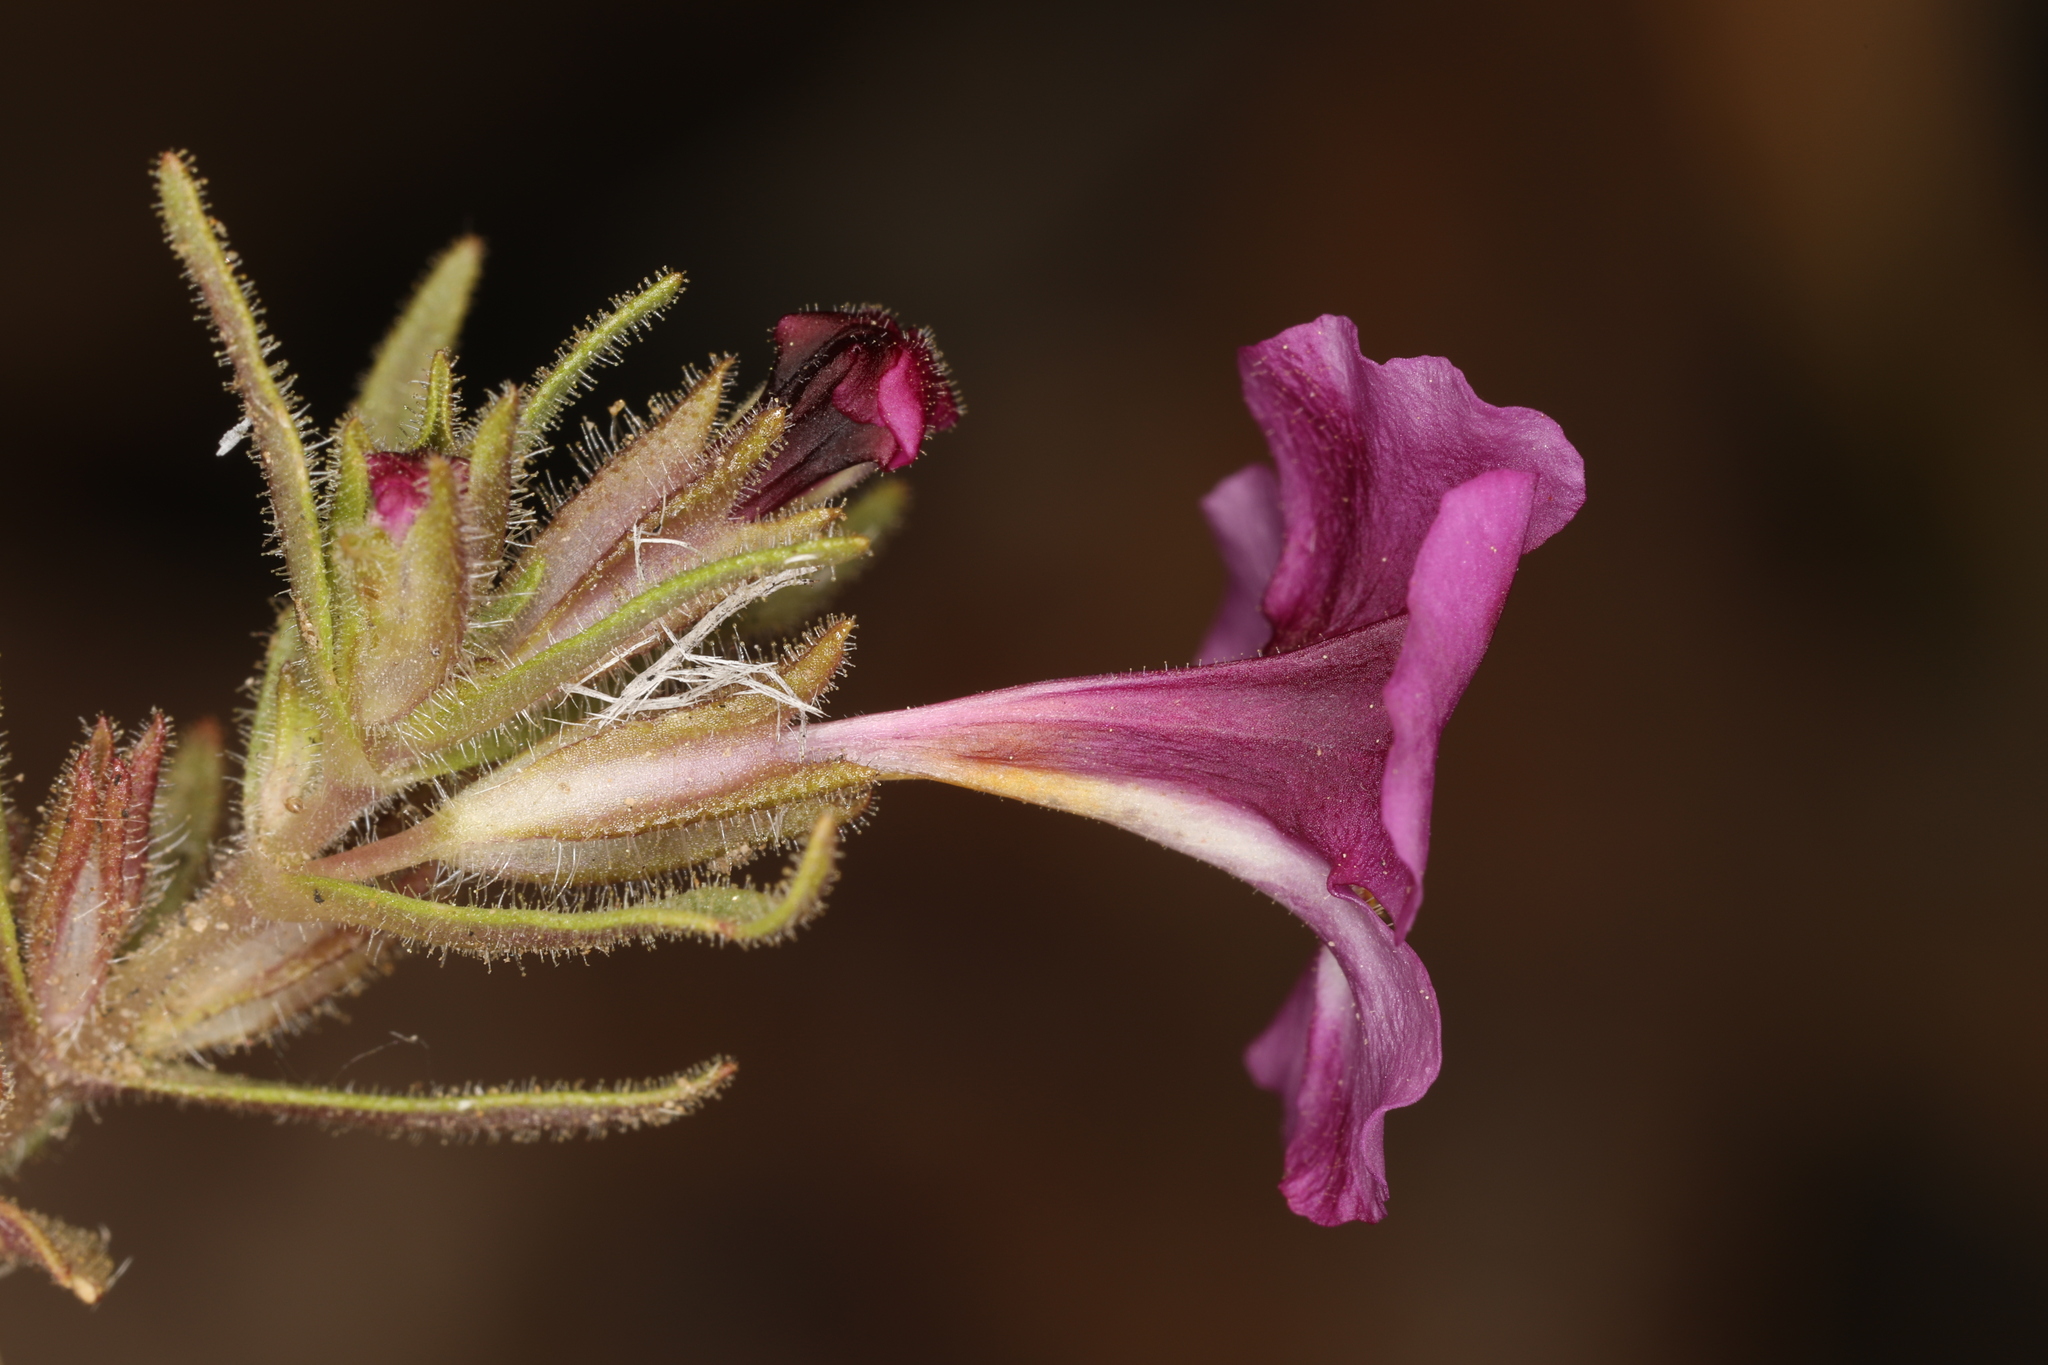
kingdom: Plantae
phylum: Tracheophyta
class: Magnoliopsida
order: Lamiales
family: Phrymaceae
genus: Diplacus
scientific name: Diplacus mephiticus
